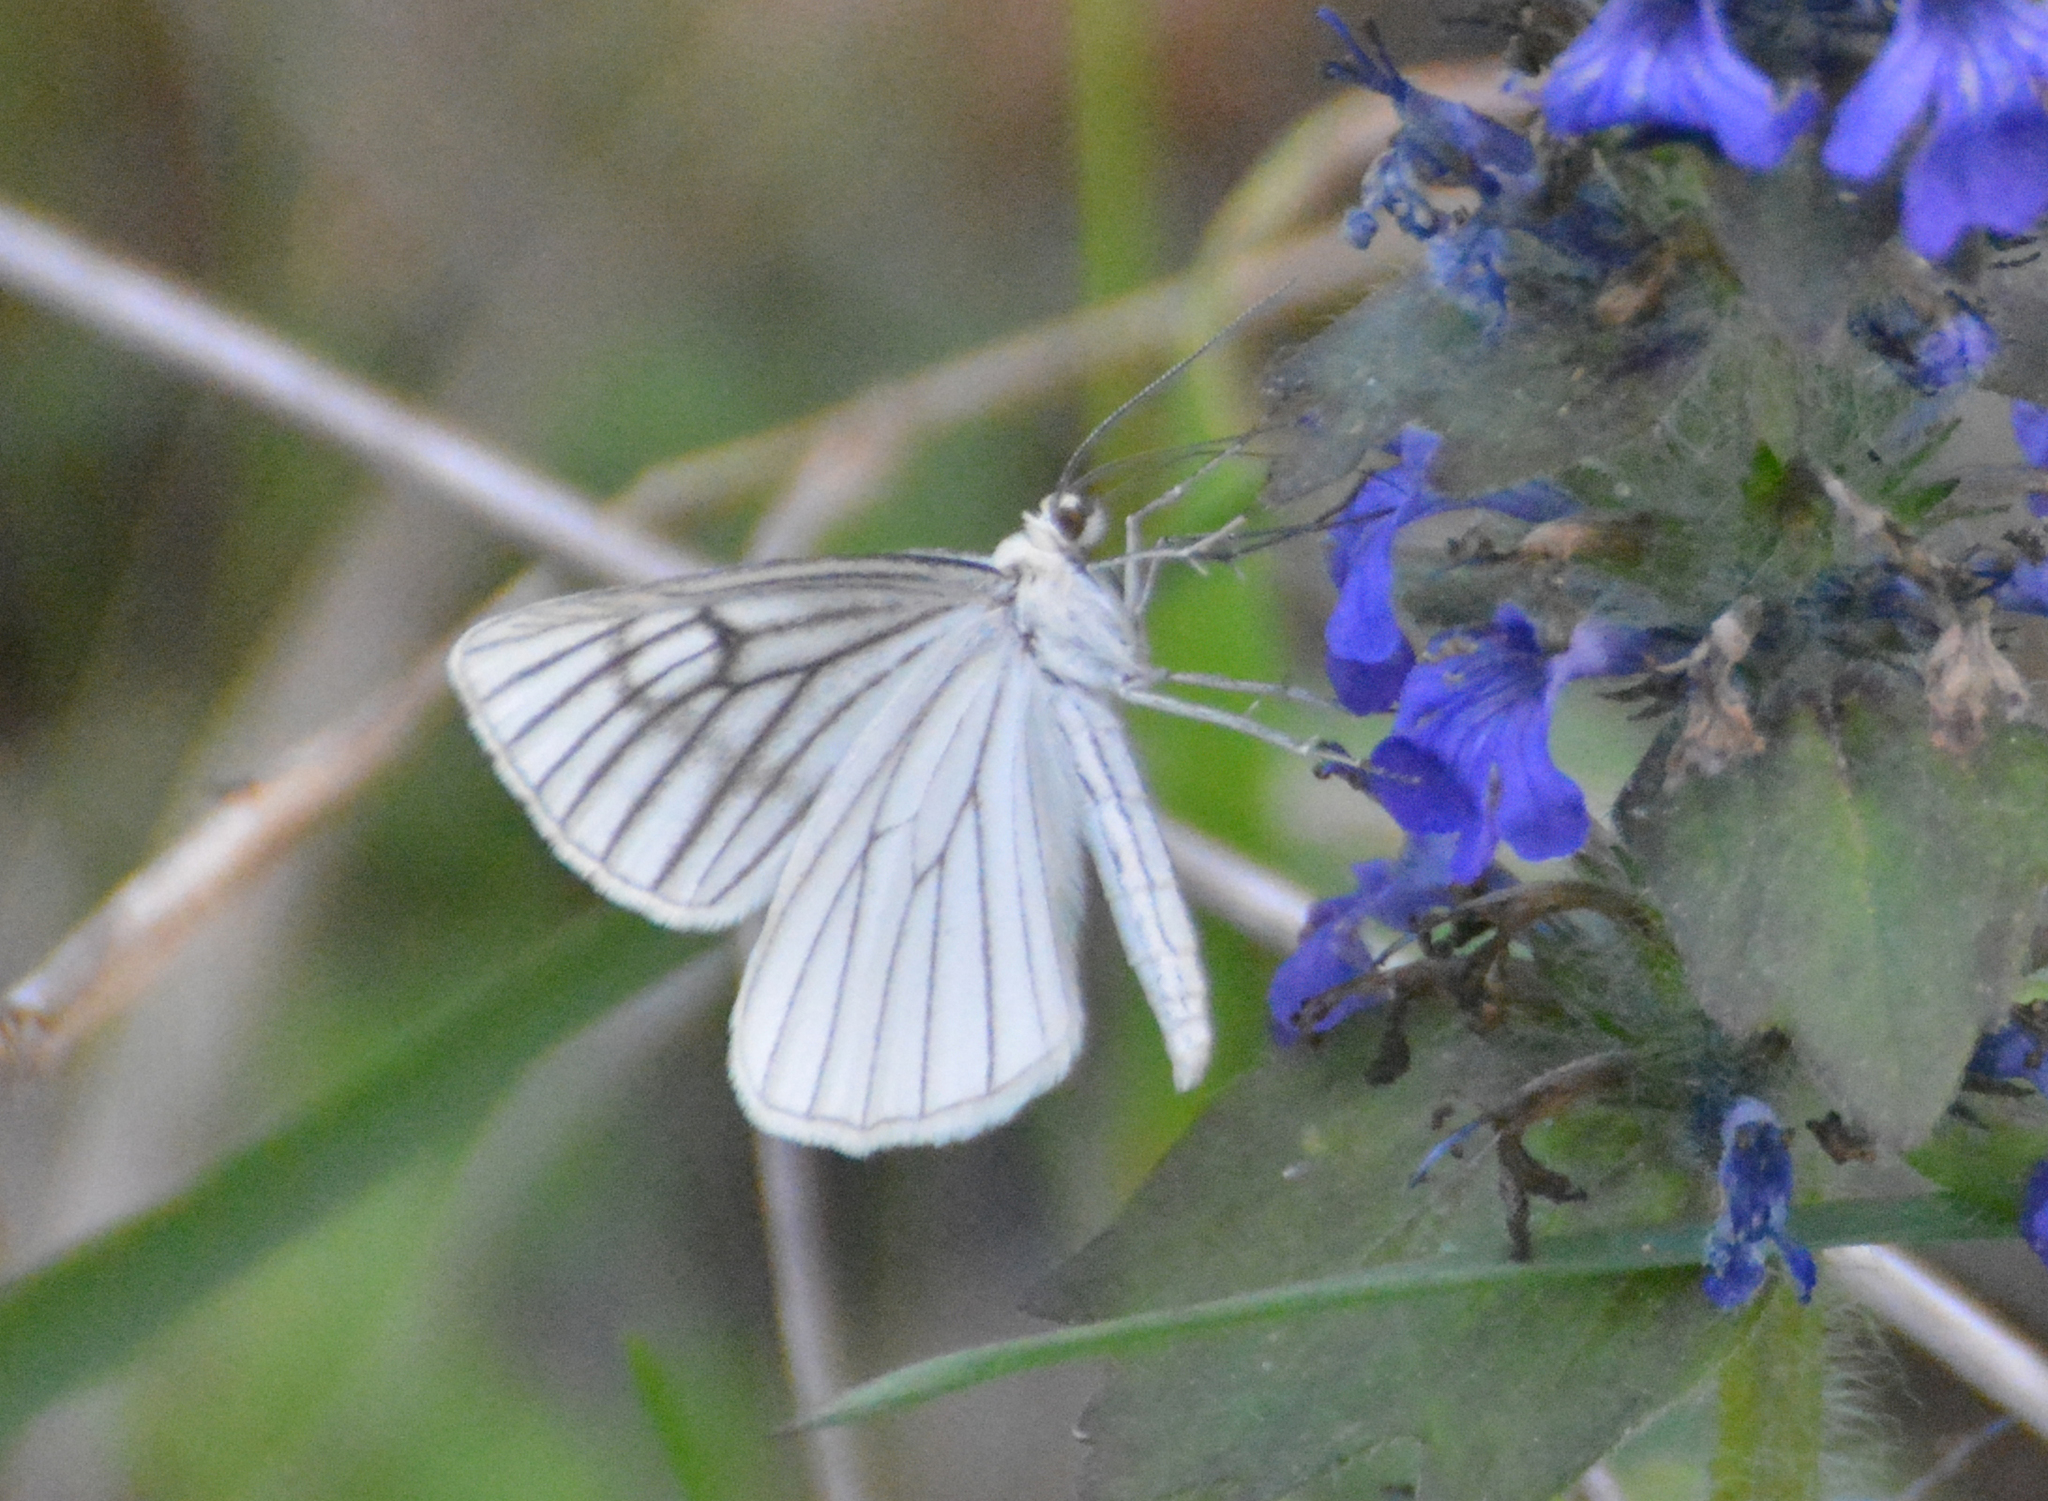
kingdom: Animalia
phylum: Arthropoda
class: Insecta
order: Lepidoptera
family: Geometridae
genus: Siona
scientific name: Siona lineata
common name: Black-veined moth
